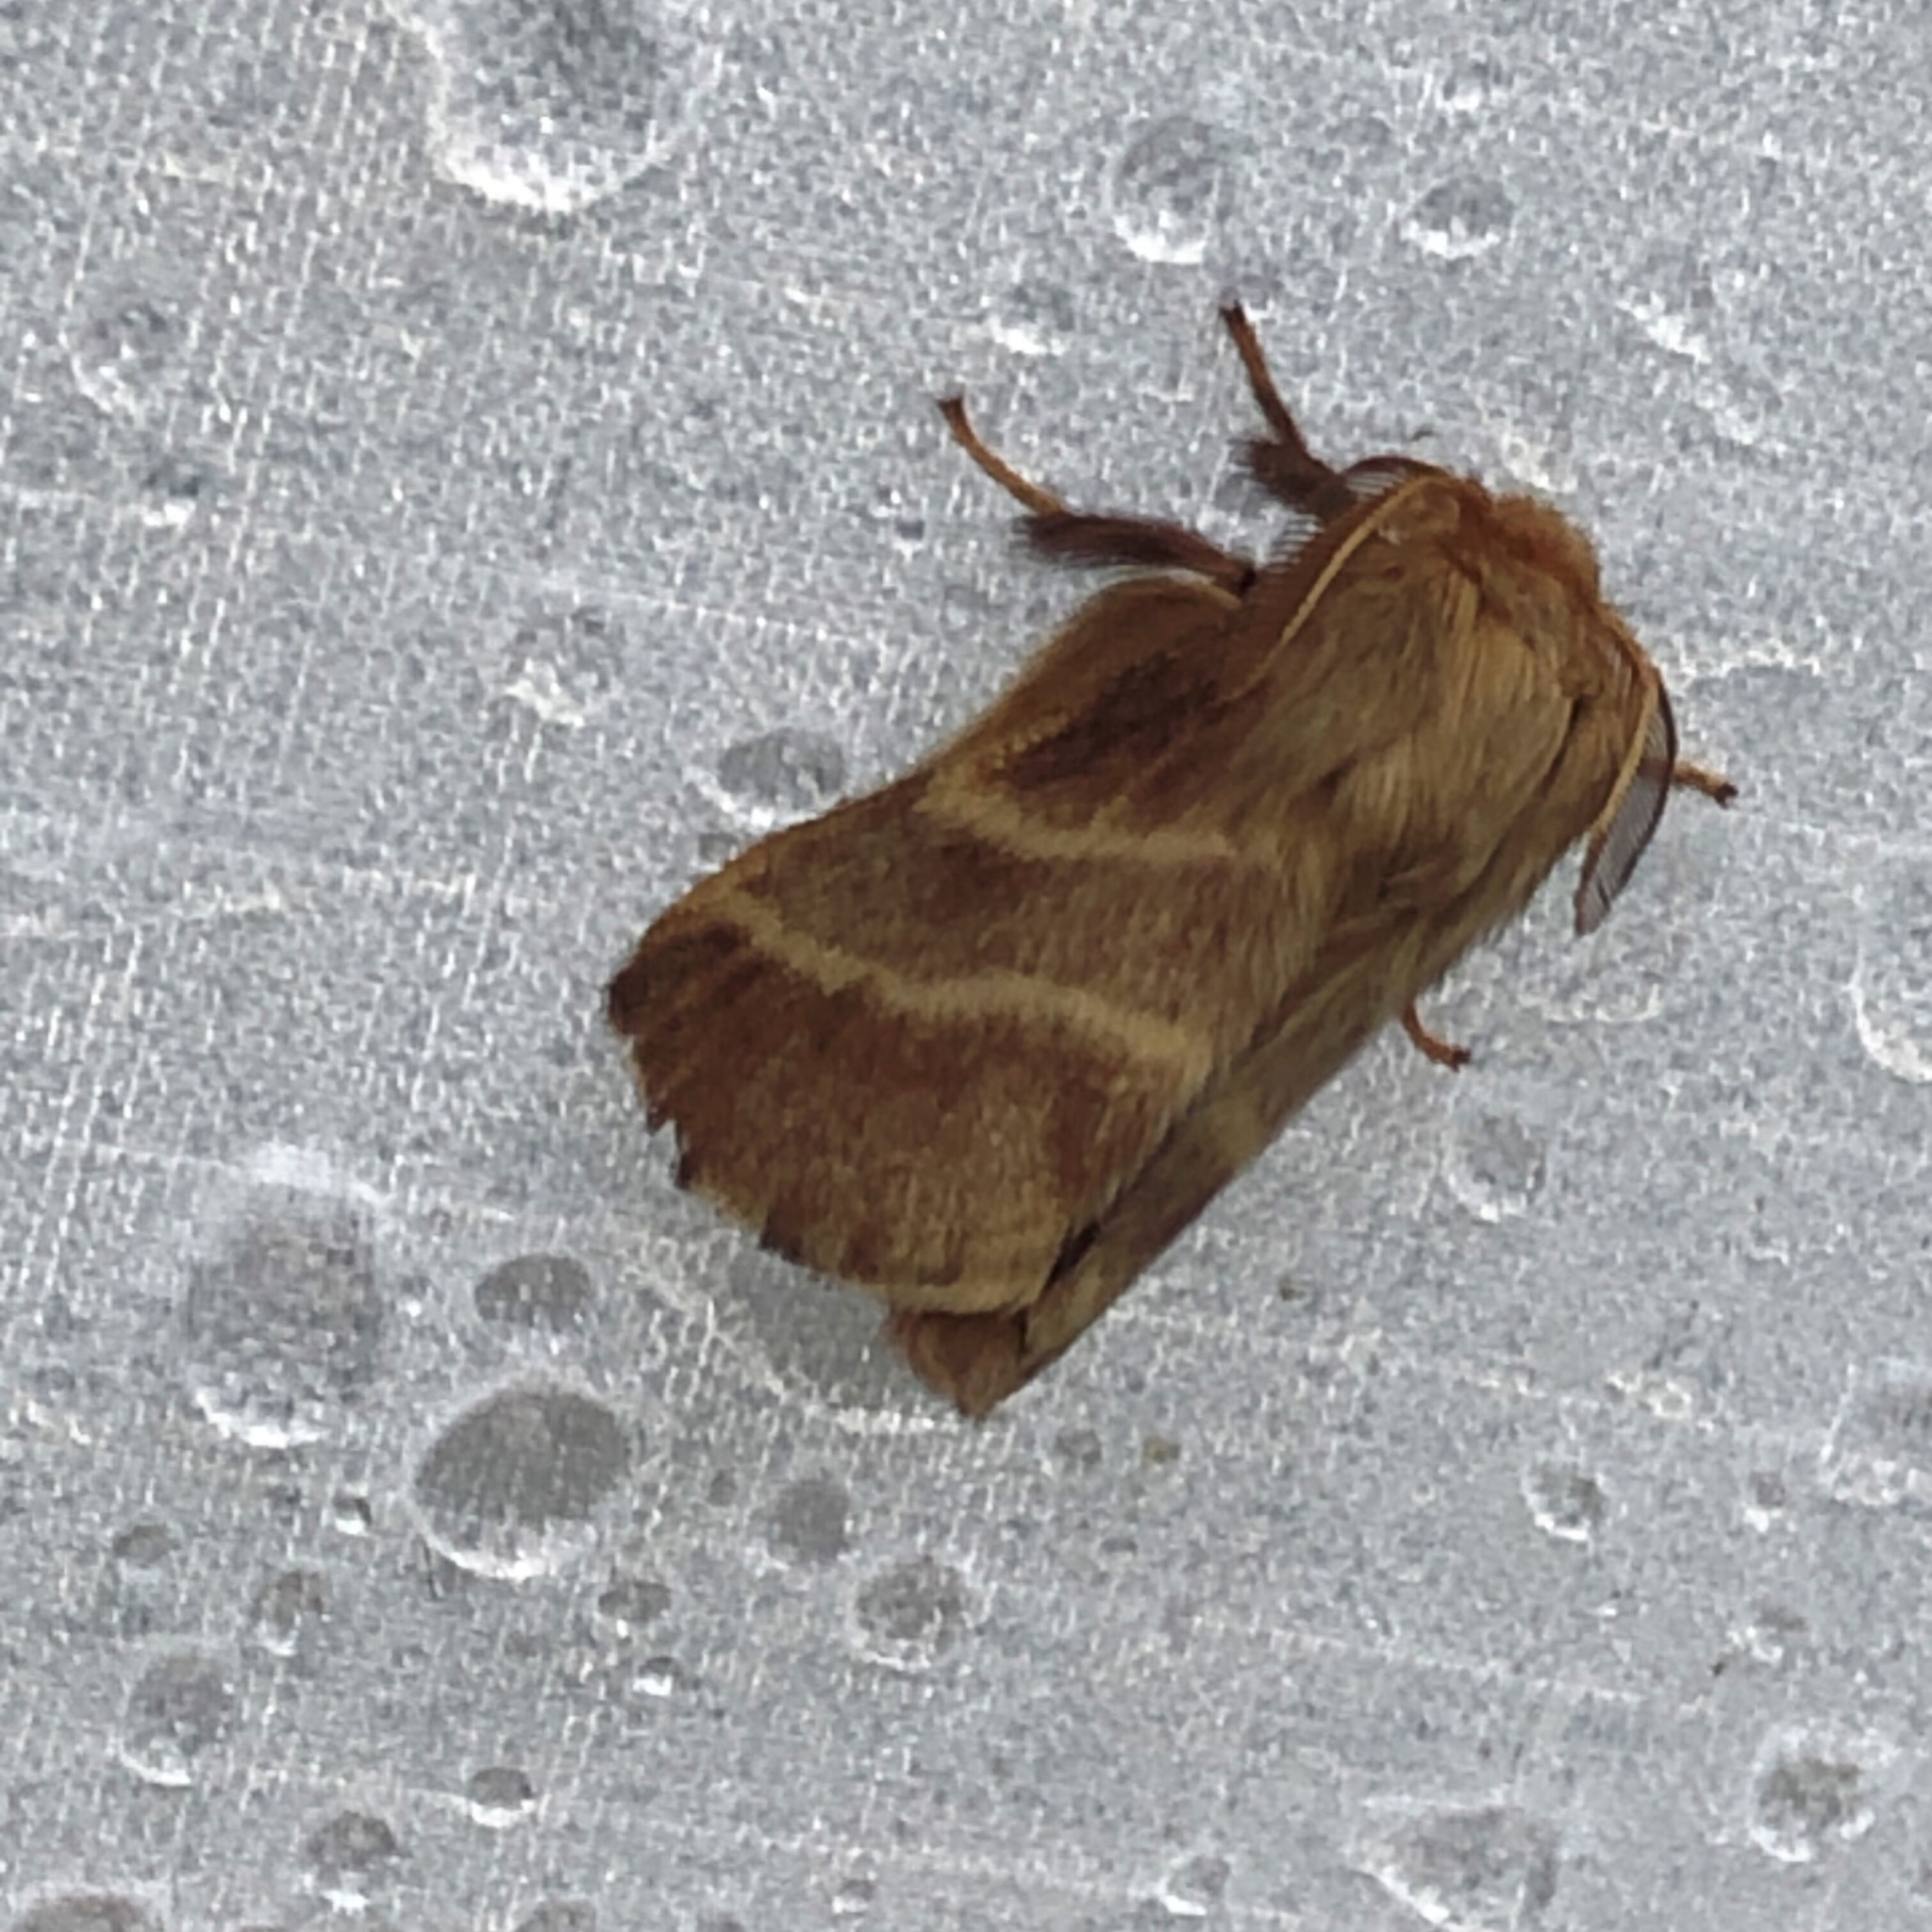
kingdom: Animalia
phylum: Arthropoda
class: Insecta
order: Lepidoptera
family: Lasiocampidae
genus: Malacosoma
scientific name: Malacosoma americana
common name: Eastern tent caterpillar moth
